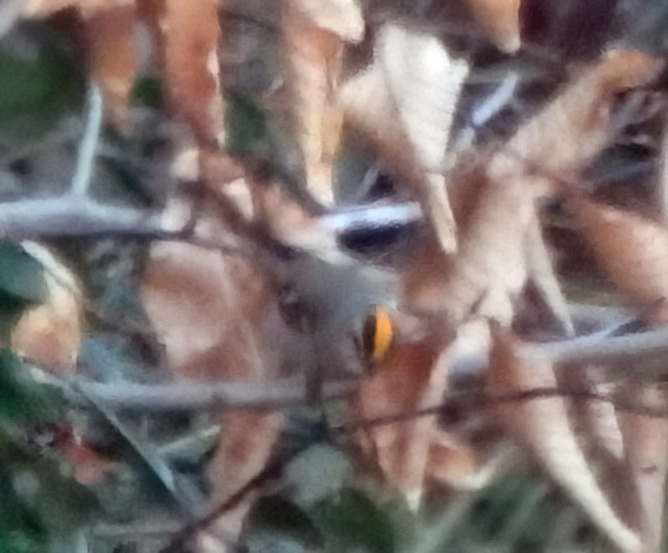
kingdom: Animalia
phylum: Chordata
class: Aves
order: Passeriformes
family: Regulidae
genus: Regulus
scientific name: Regulus satrapa
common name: Golden-crowned kinglet
